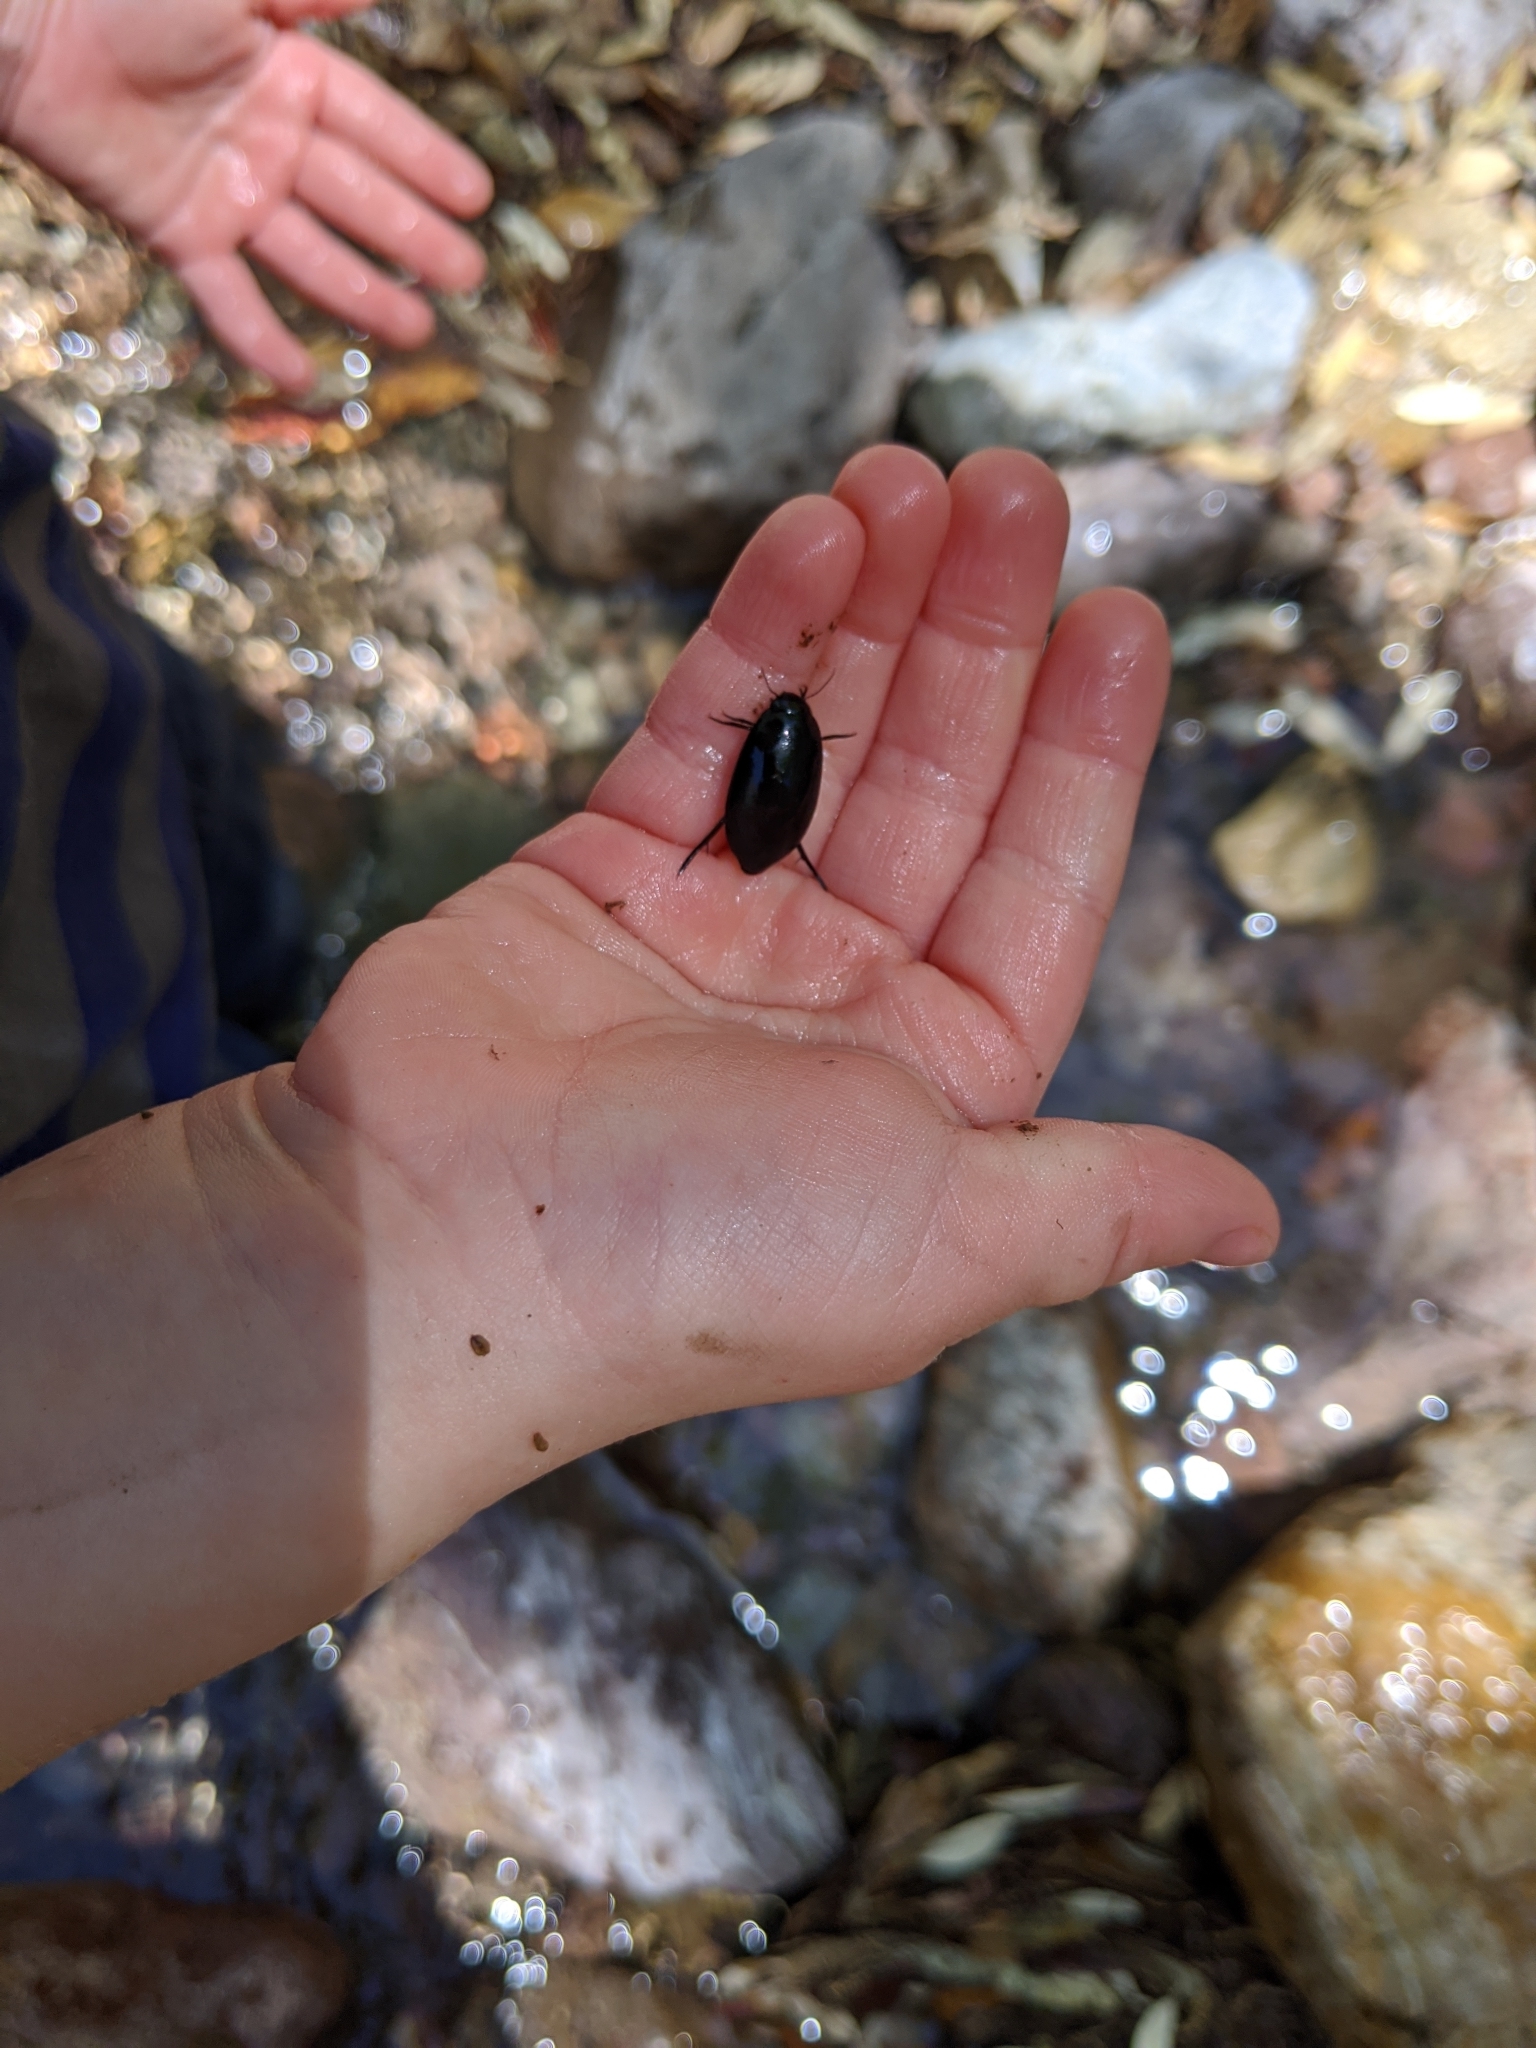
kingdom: Animalia
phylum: Arthropoda
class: Insecta
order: Coleoptera
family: Dytiscidae
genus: Rhantus
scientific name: Rhantus atricolor
